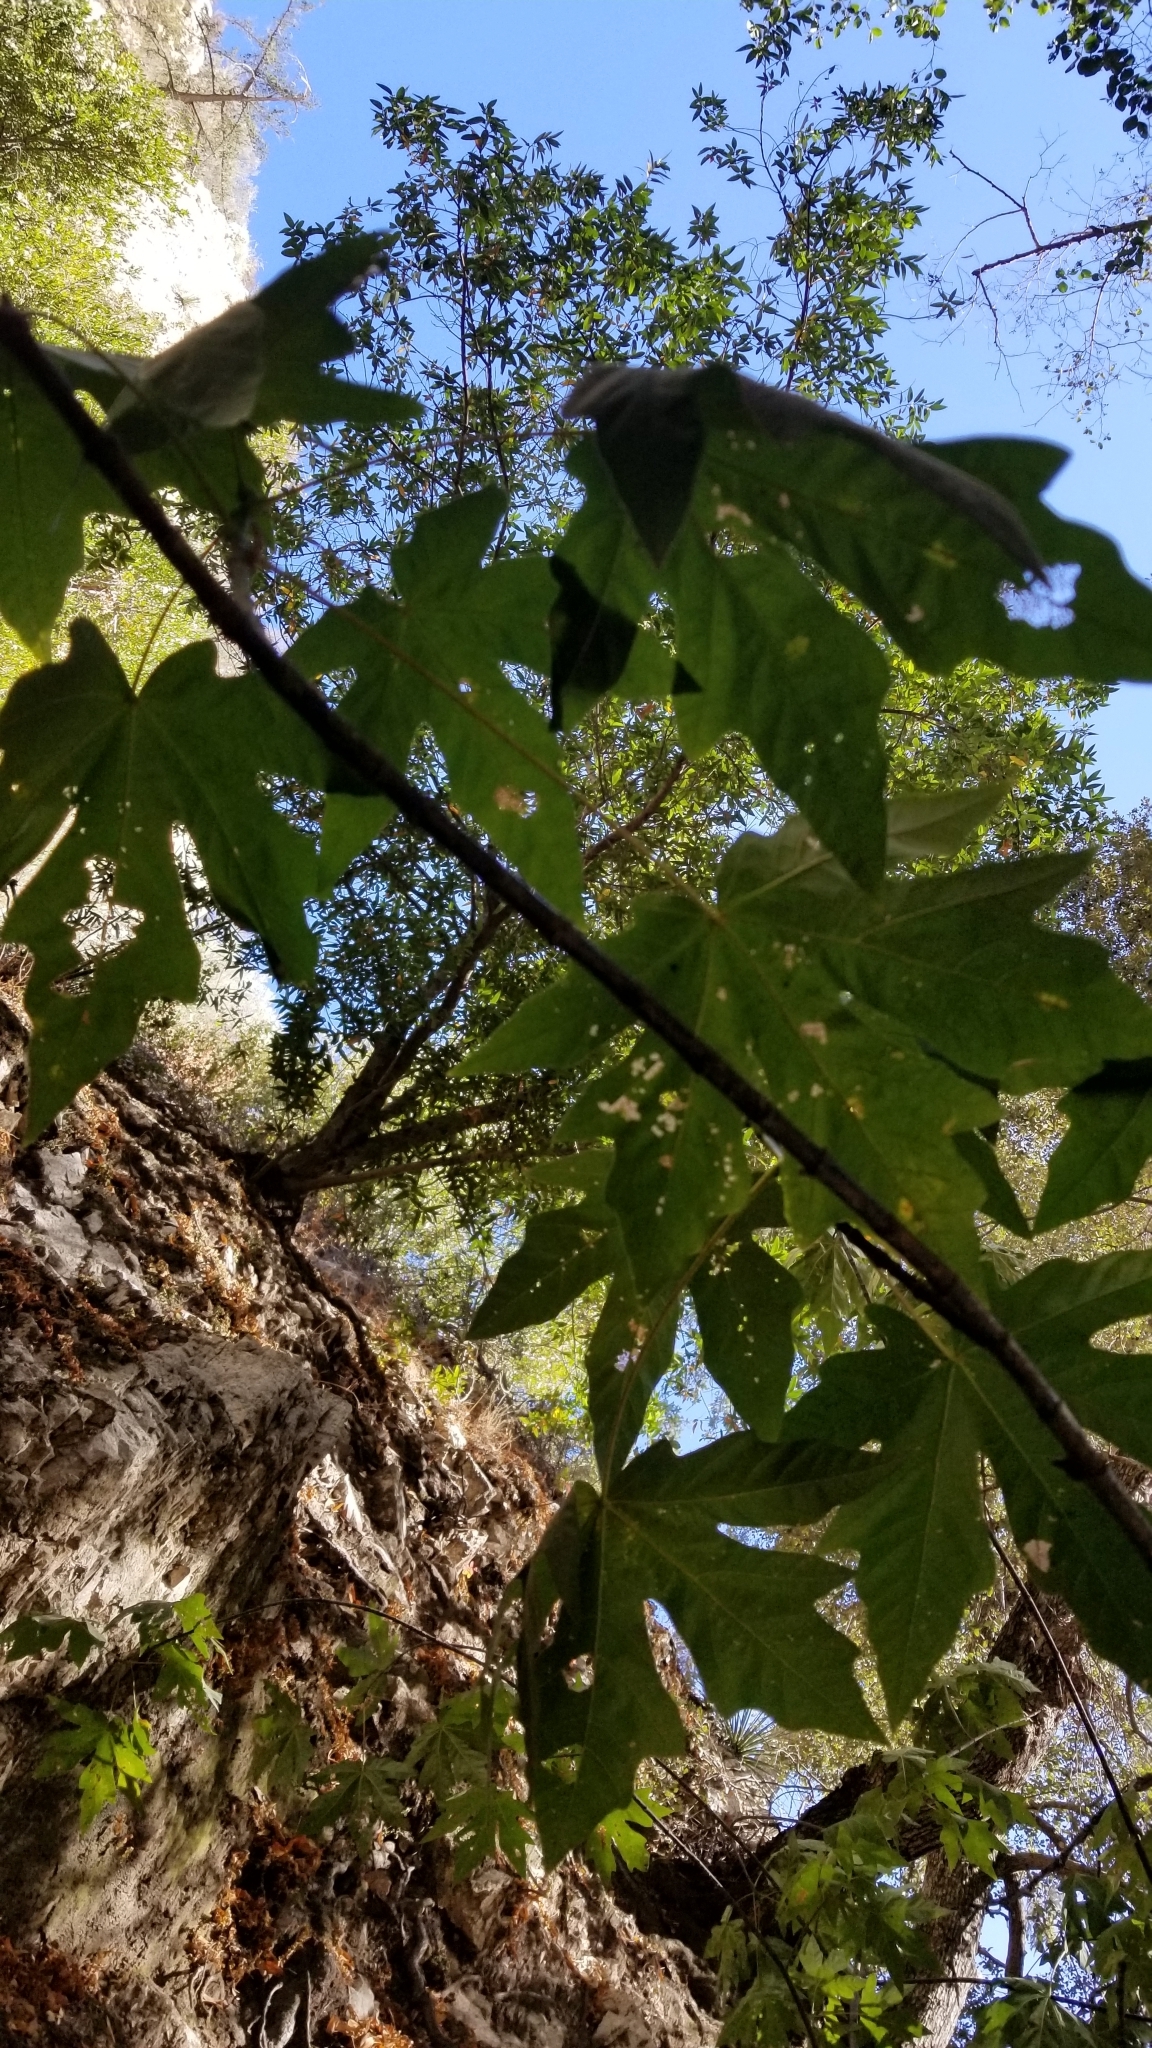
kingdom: Plantae
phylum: Tracheophyta
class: Magnoliopsida
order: Sapindales
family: Sapindaceae
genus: Acer
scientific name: Acer macrophyllum
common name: Oregon maple
